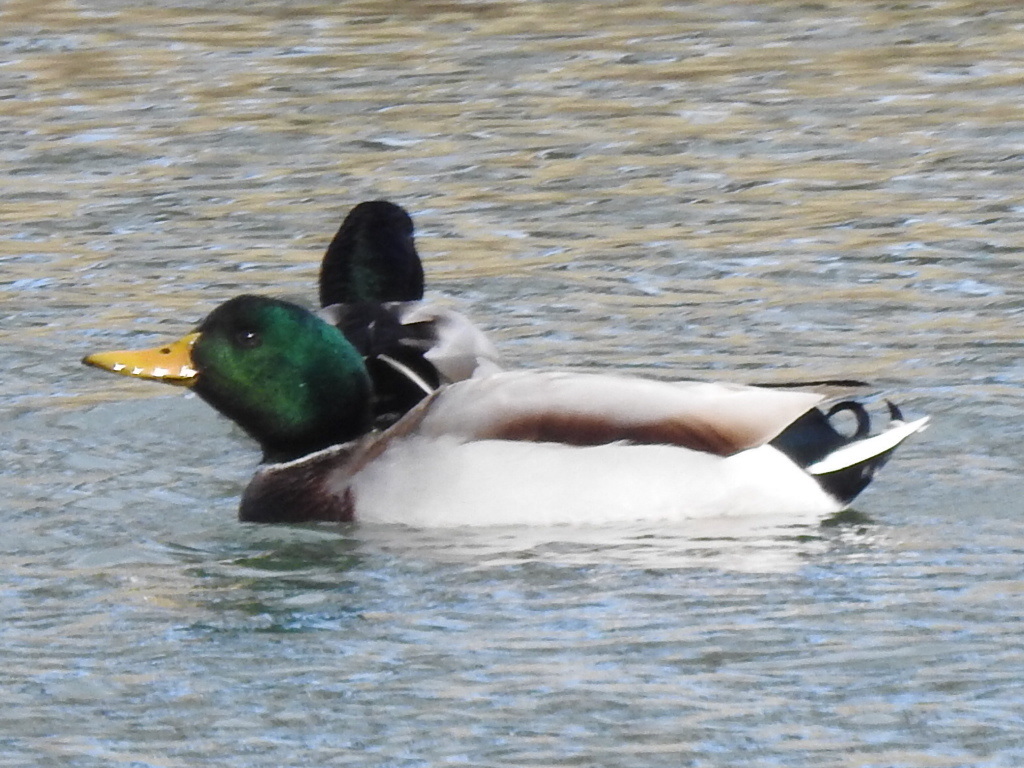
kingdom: Animalia
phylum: Chordata
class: Aves
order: Anseriformes
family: Anatidae
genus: Anas
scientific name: Anas platyrhynchos
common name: Mallard
